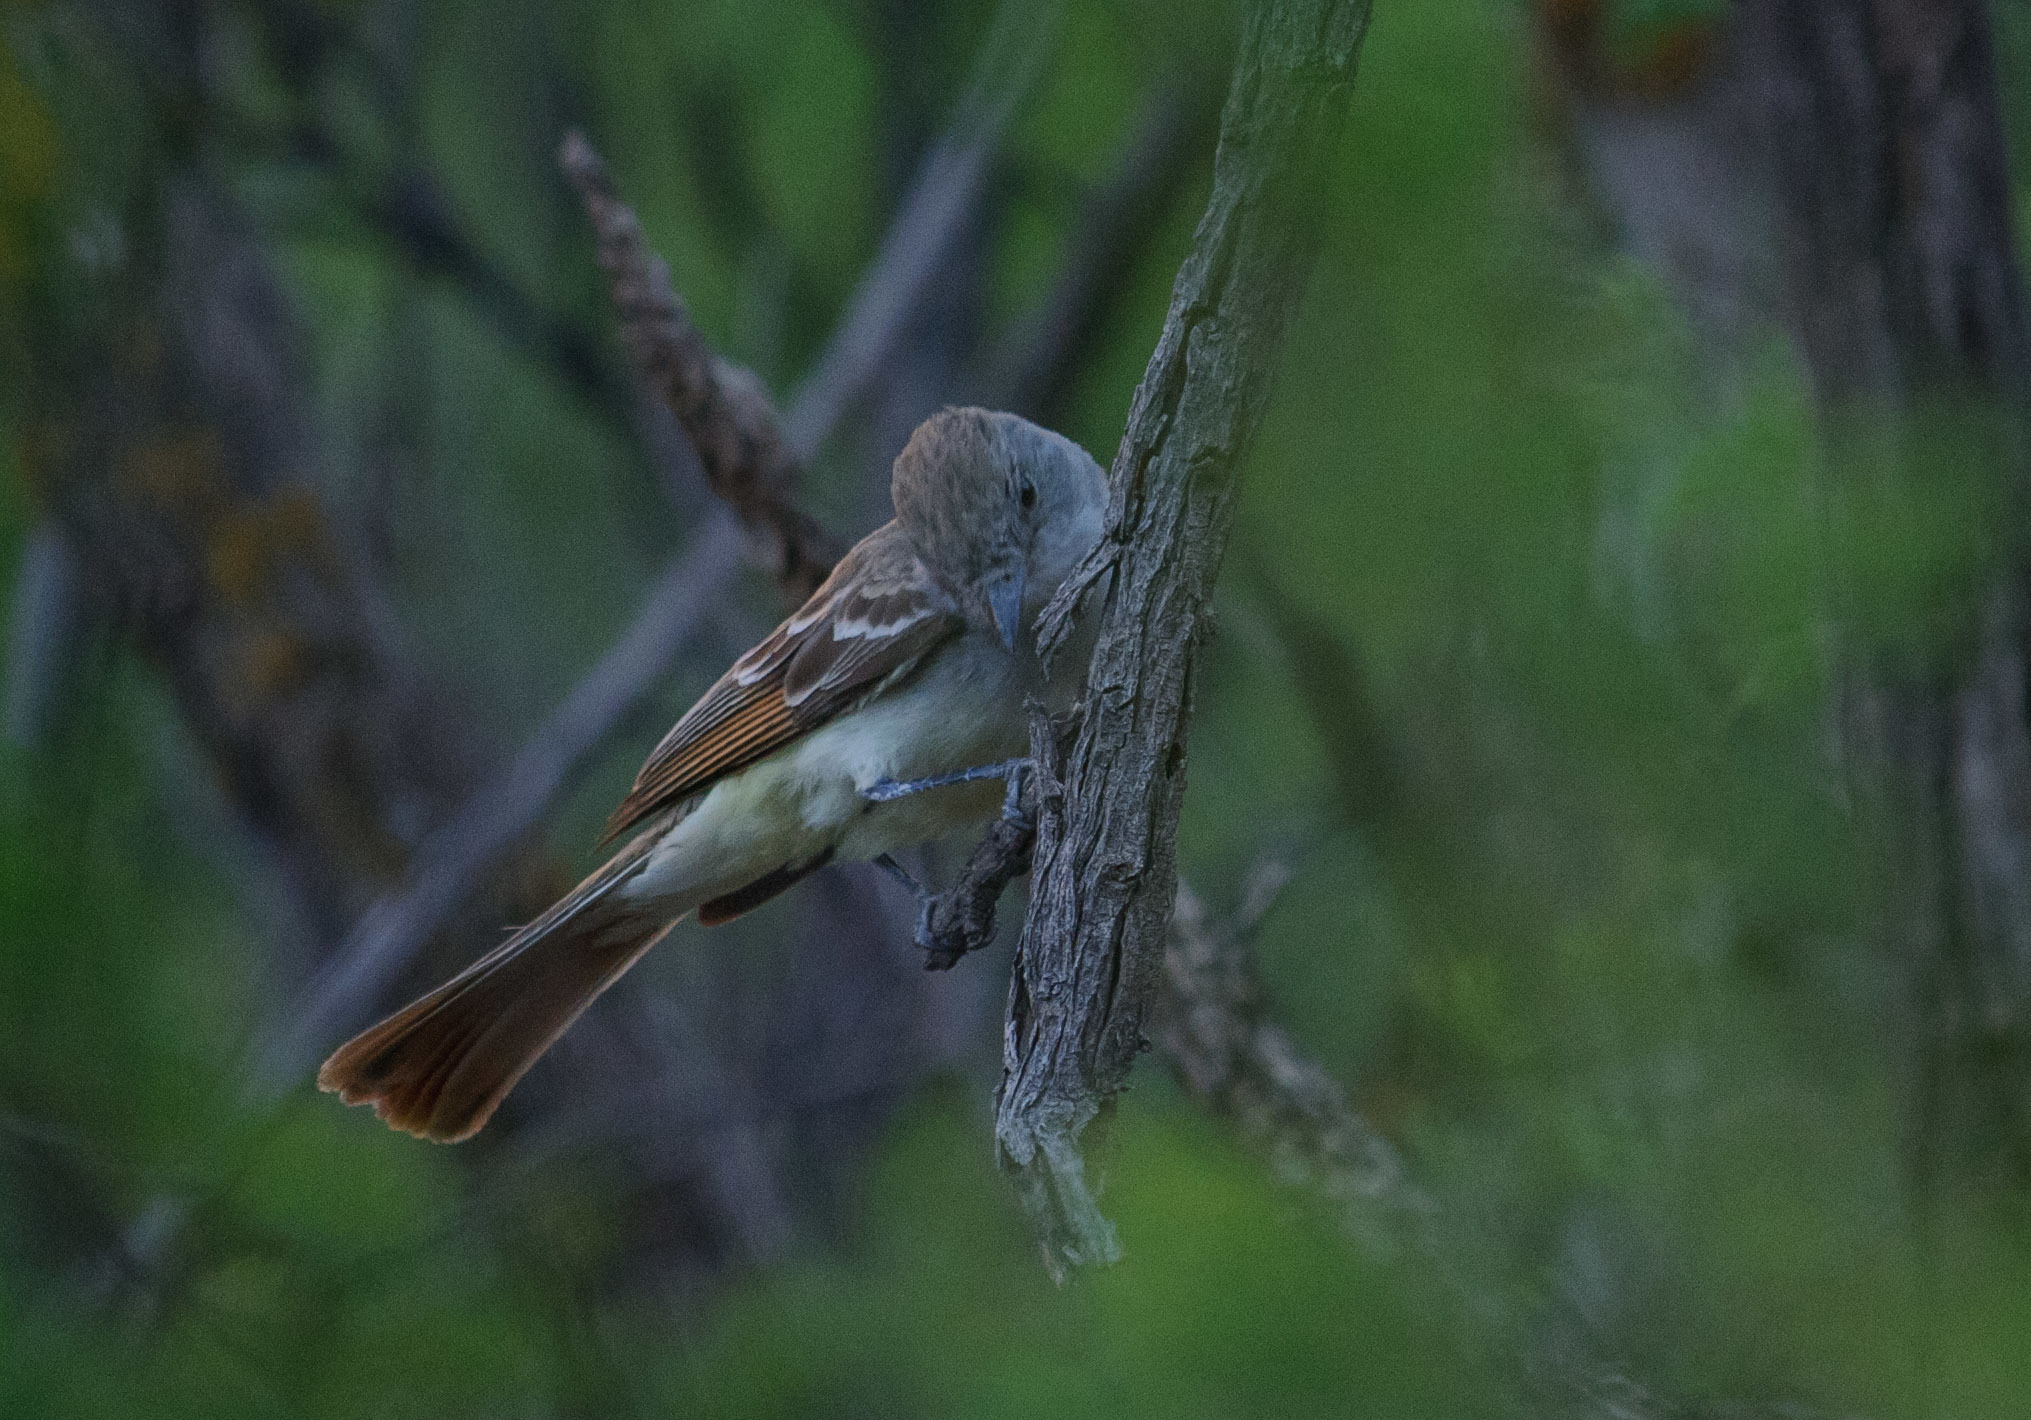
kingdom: Animalia
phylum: Chordata
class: Aves
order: Passeriformes
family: Tyrannidae
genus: Myiarchus
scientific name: Myiarchus cinerascens
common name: Ash-throated flycatcher
